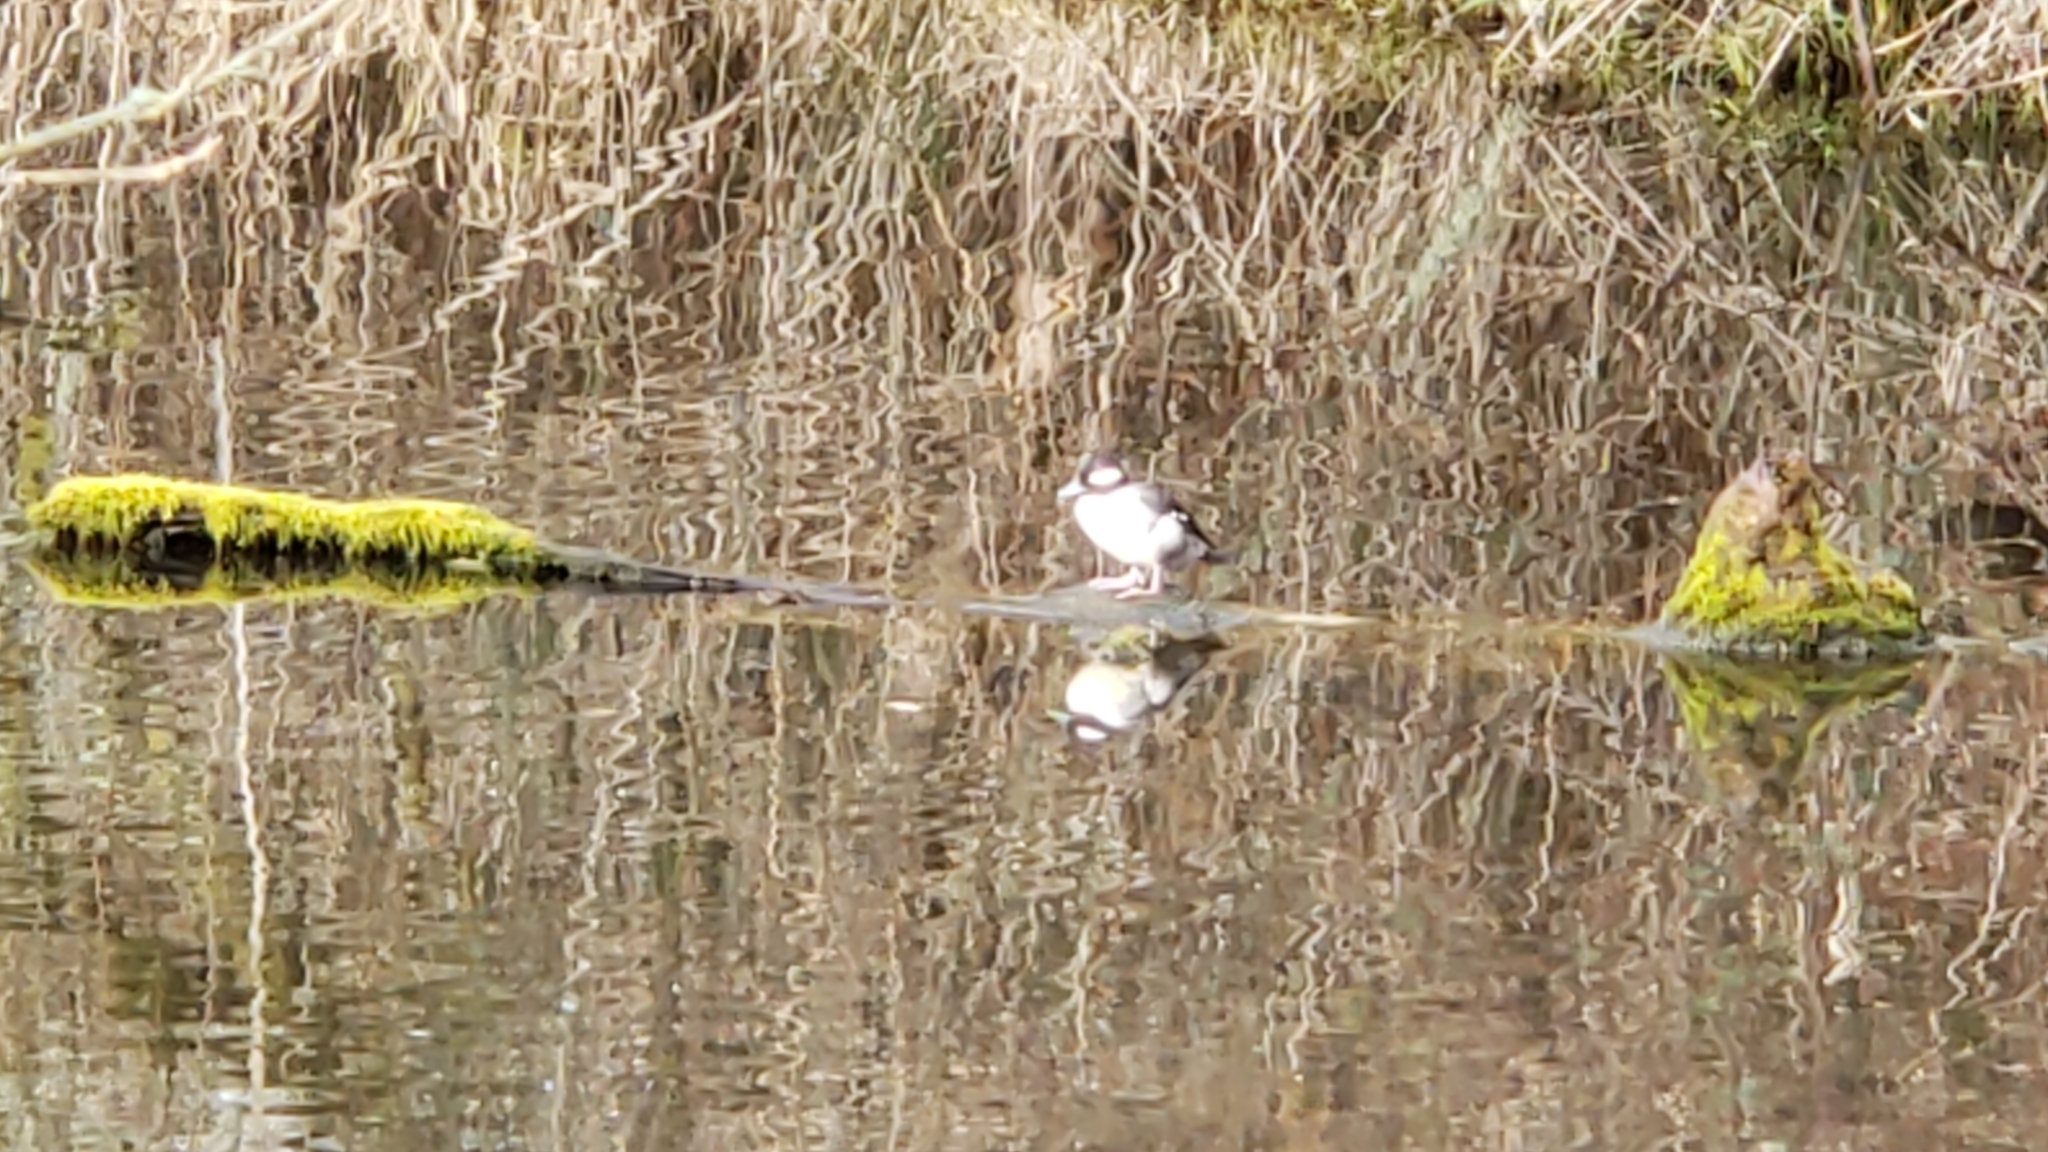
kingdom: Animalia
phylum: Chordata
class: Aves
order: Anseriformes
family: Anatidae
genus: Bucephala
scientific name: Bucephala albeola
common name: Bufflehead
